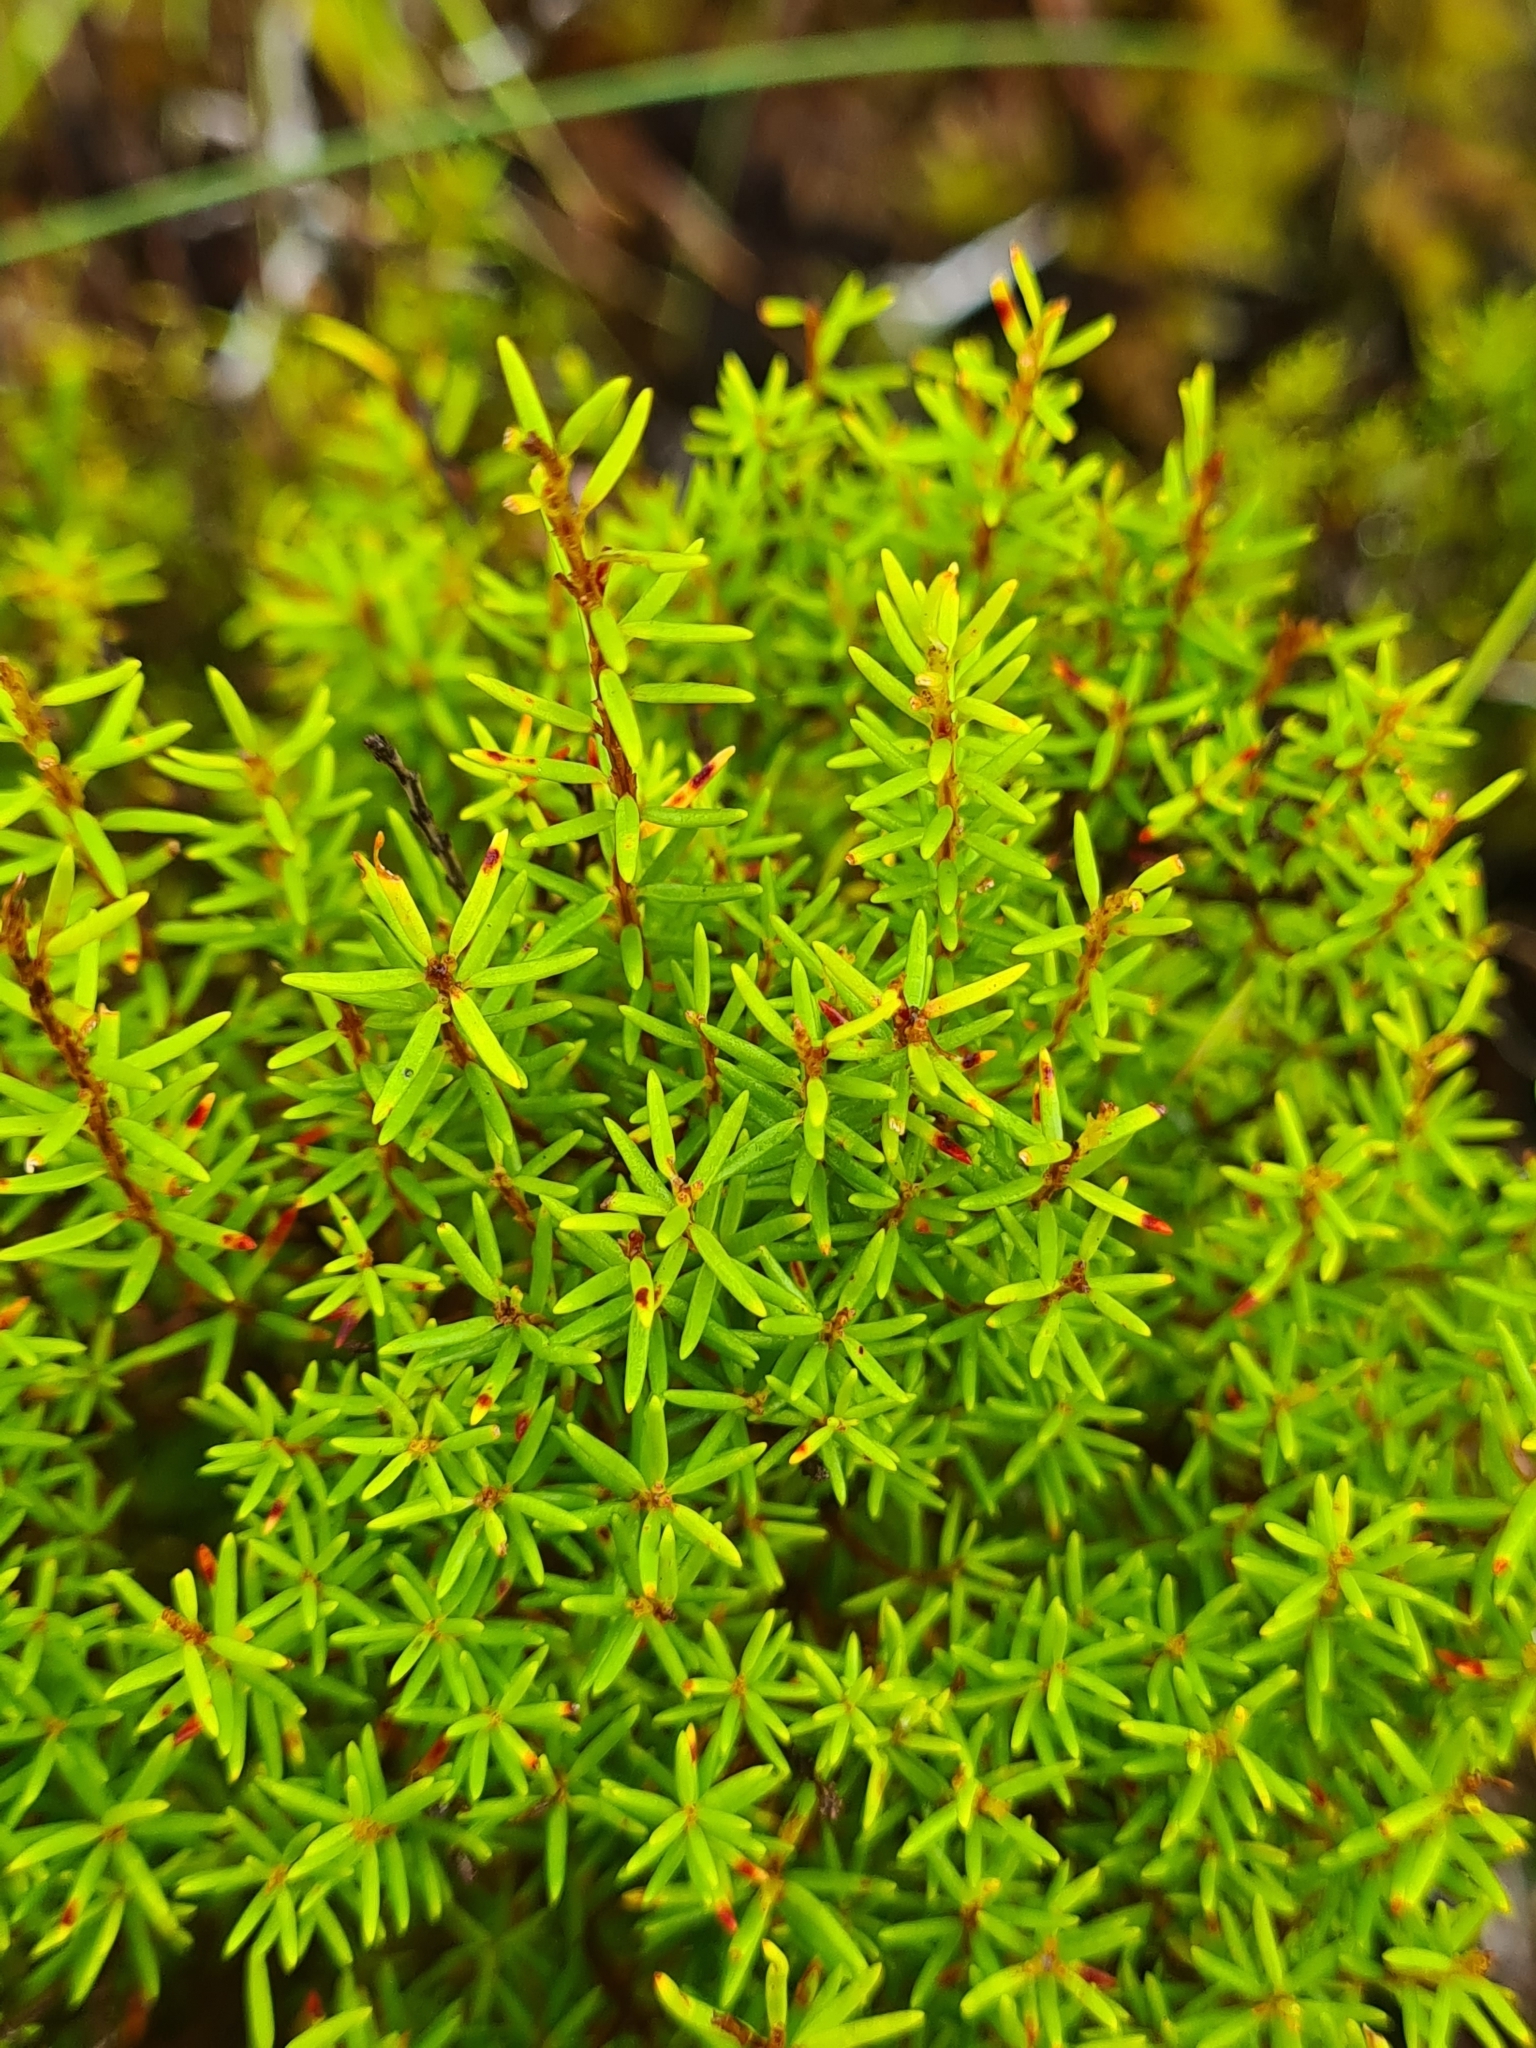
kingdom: Plantae
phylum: Tracheophyta
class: Magnoliopsida
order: Ericales
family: Ericaceae
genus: Erica
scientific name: Erica azorica
